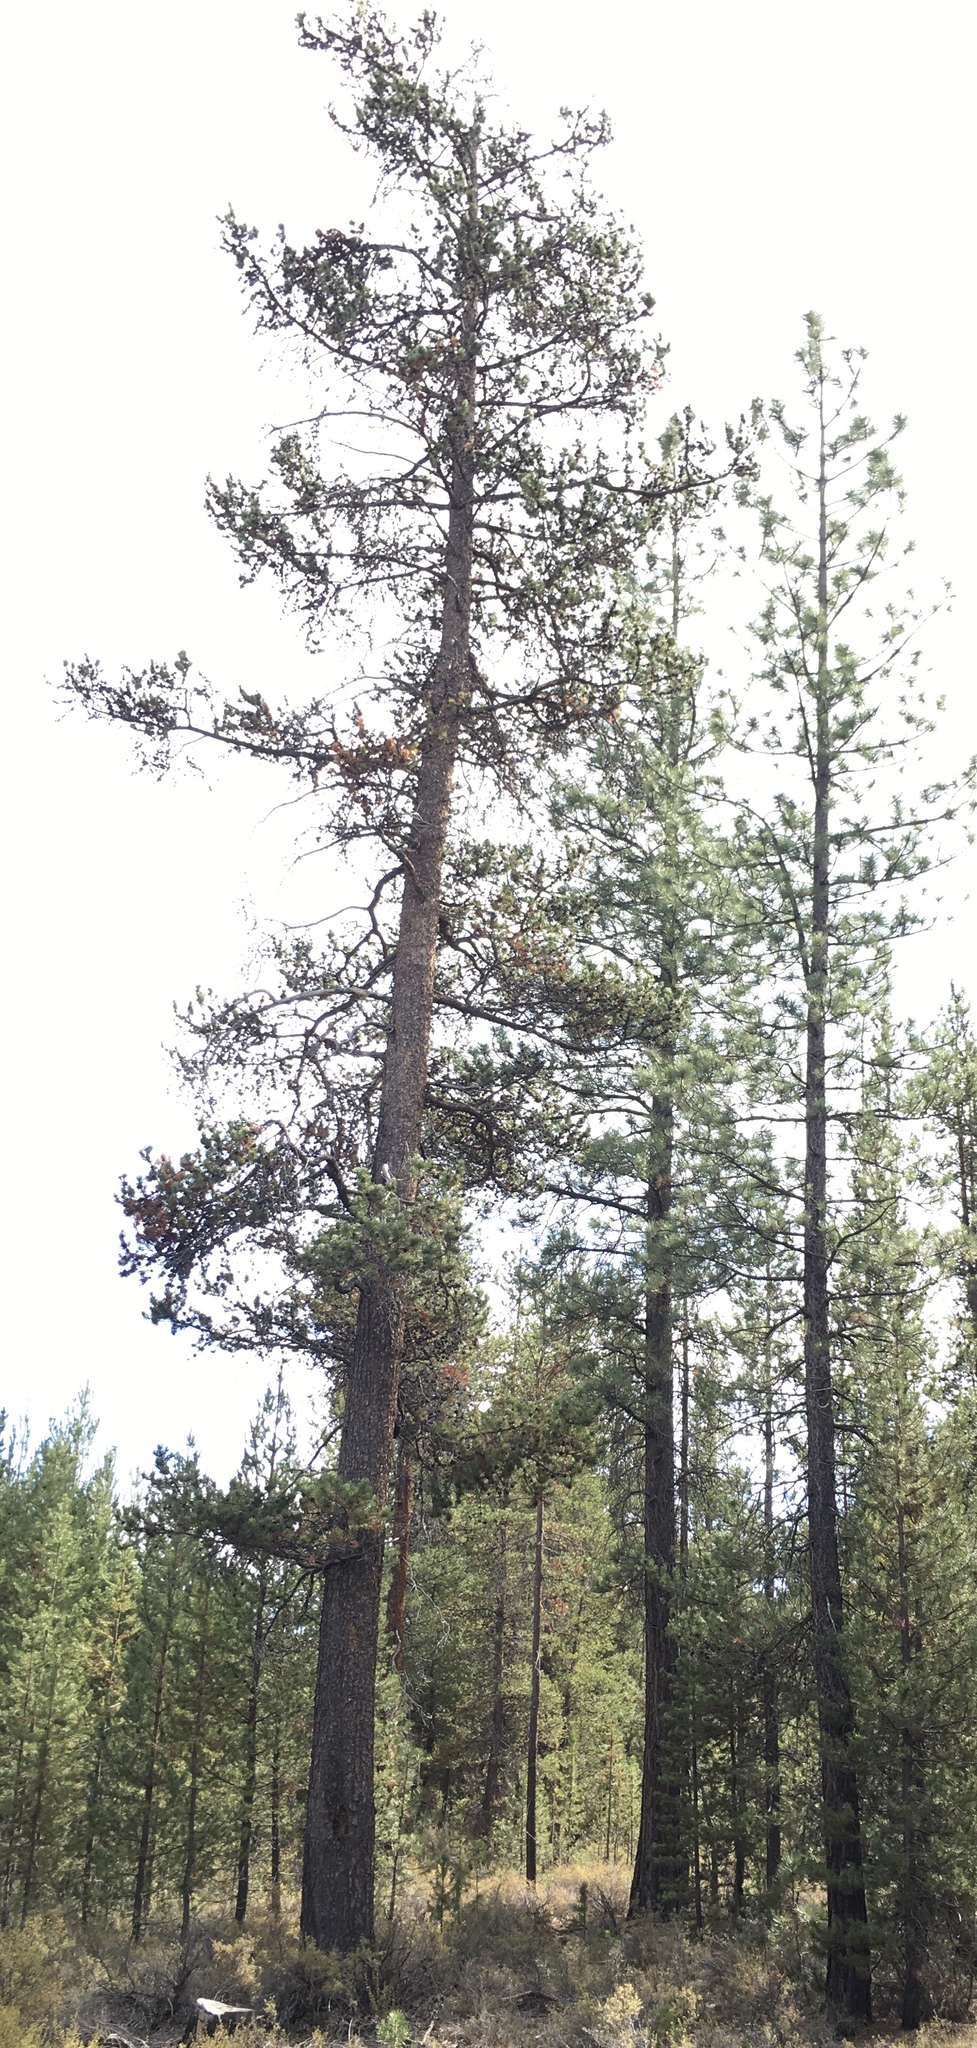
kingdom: Plantae
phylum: Tracheophyta
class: Pinopsida
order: Pinales
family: Pinaceae
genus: Pinus
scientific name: Pinus contorta
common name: Lodgepole pine
